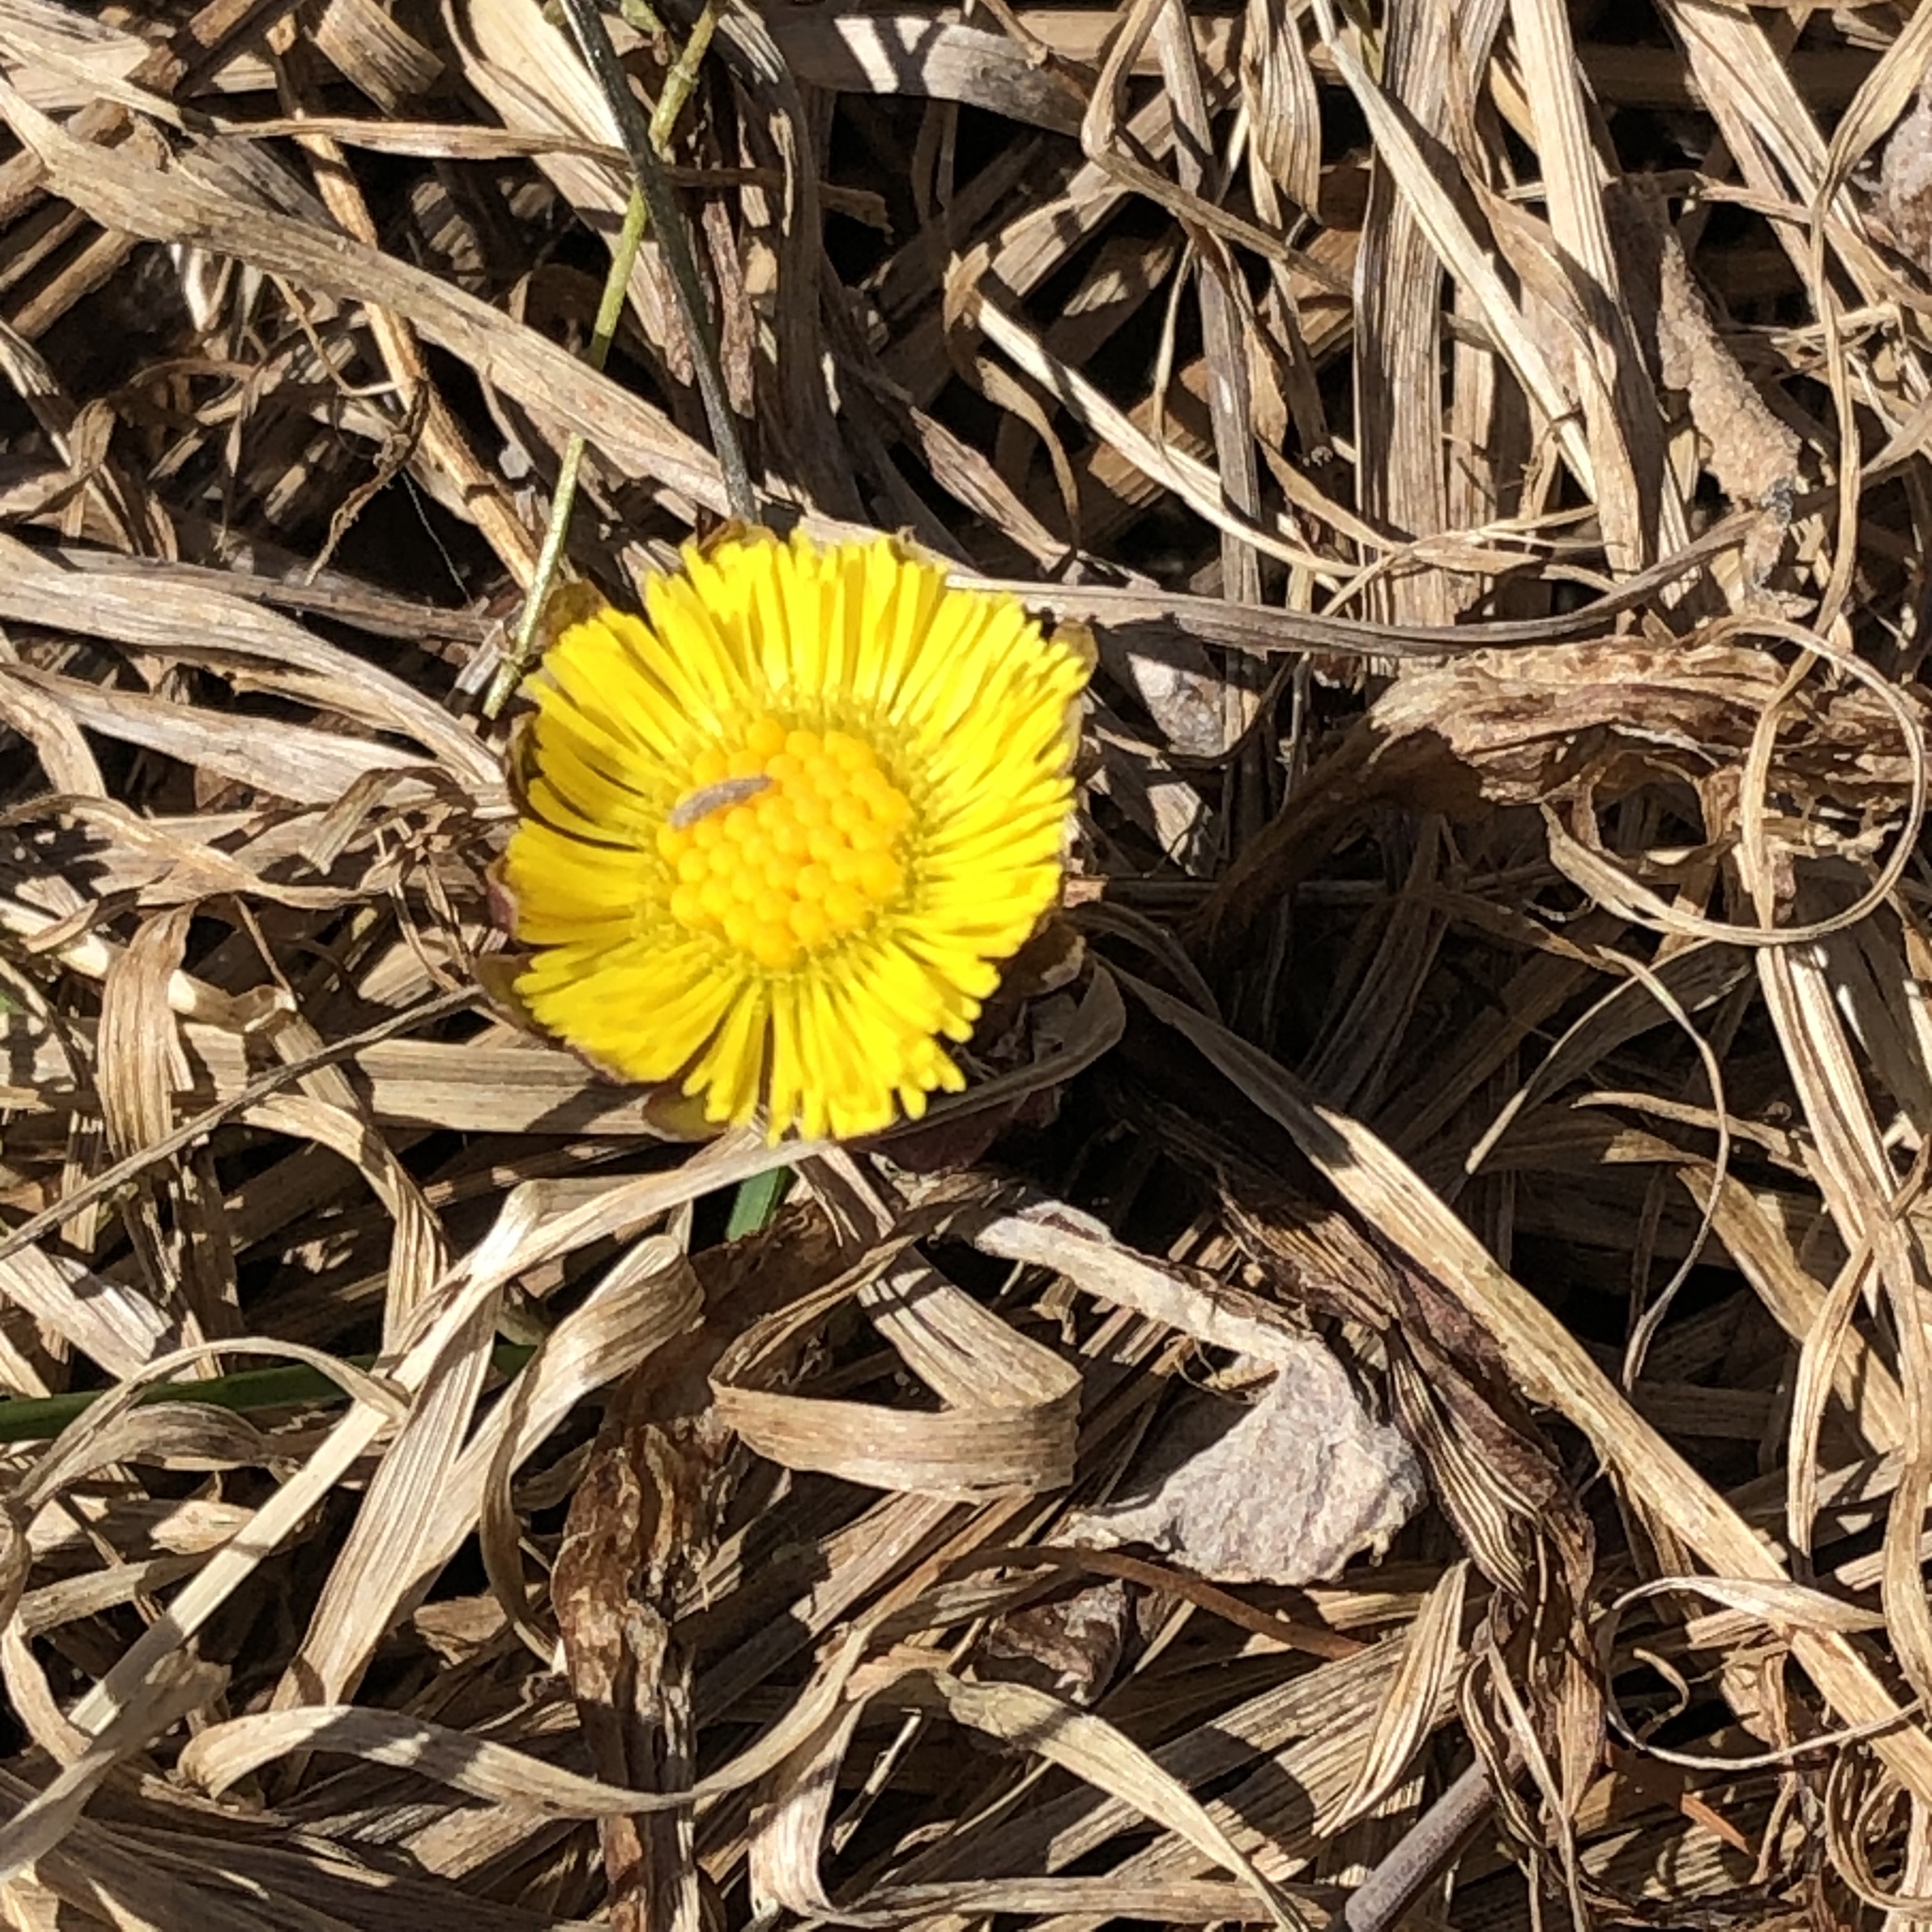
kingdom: Plantae
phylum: Tracheophyta
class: Magnoliopsida
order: Asterales
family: Asteraceae
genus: Tussilago
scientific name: Tussilago farfara
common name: Coltsfoot
